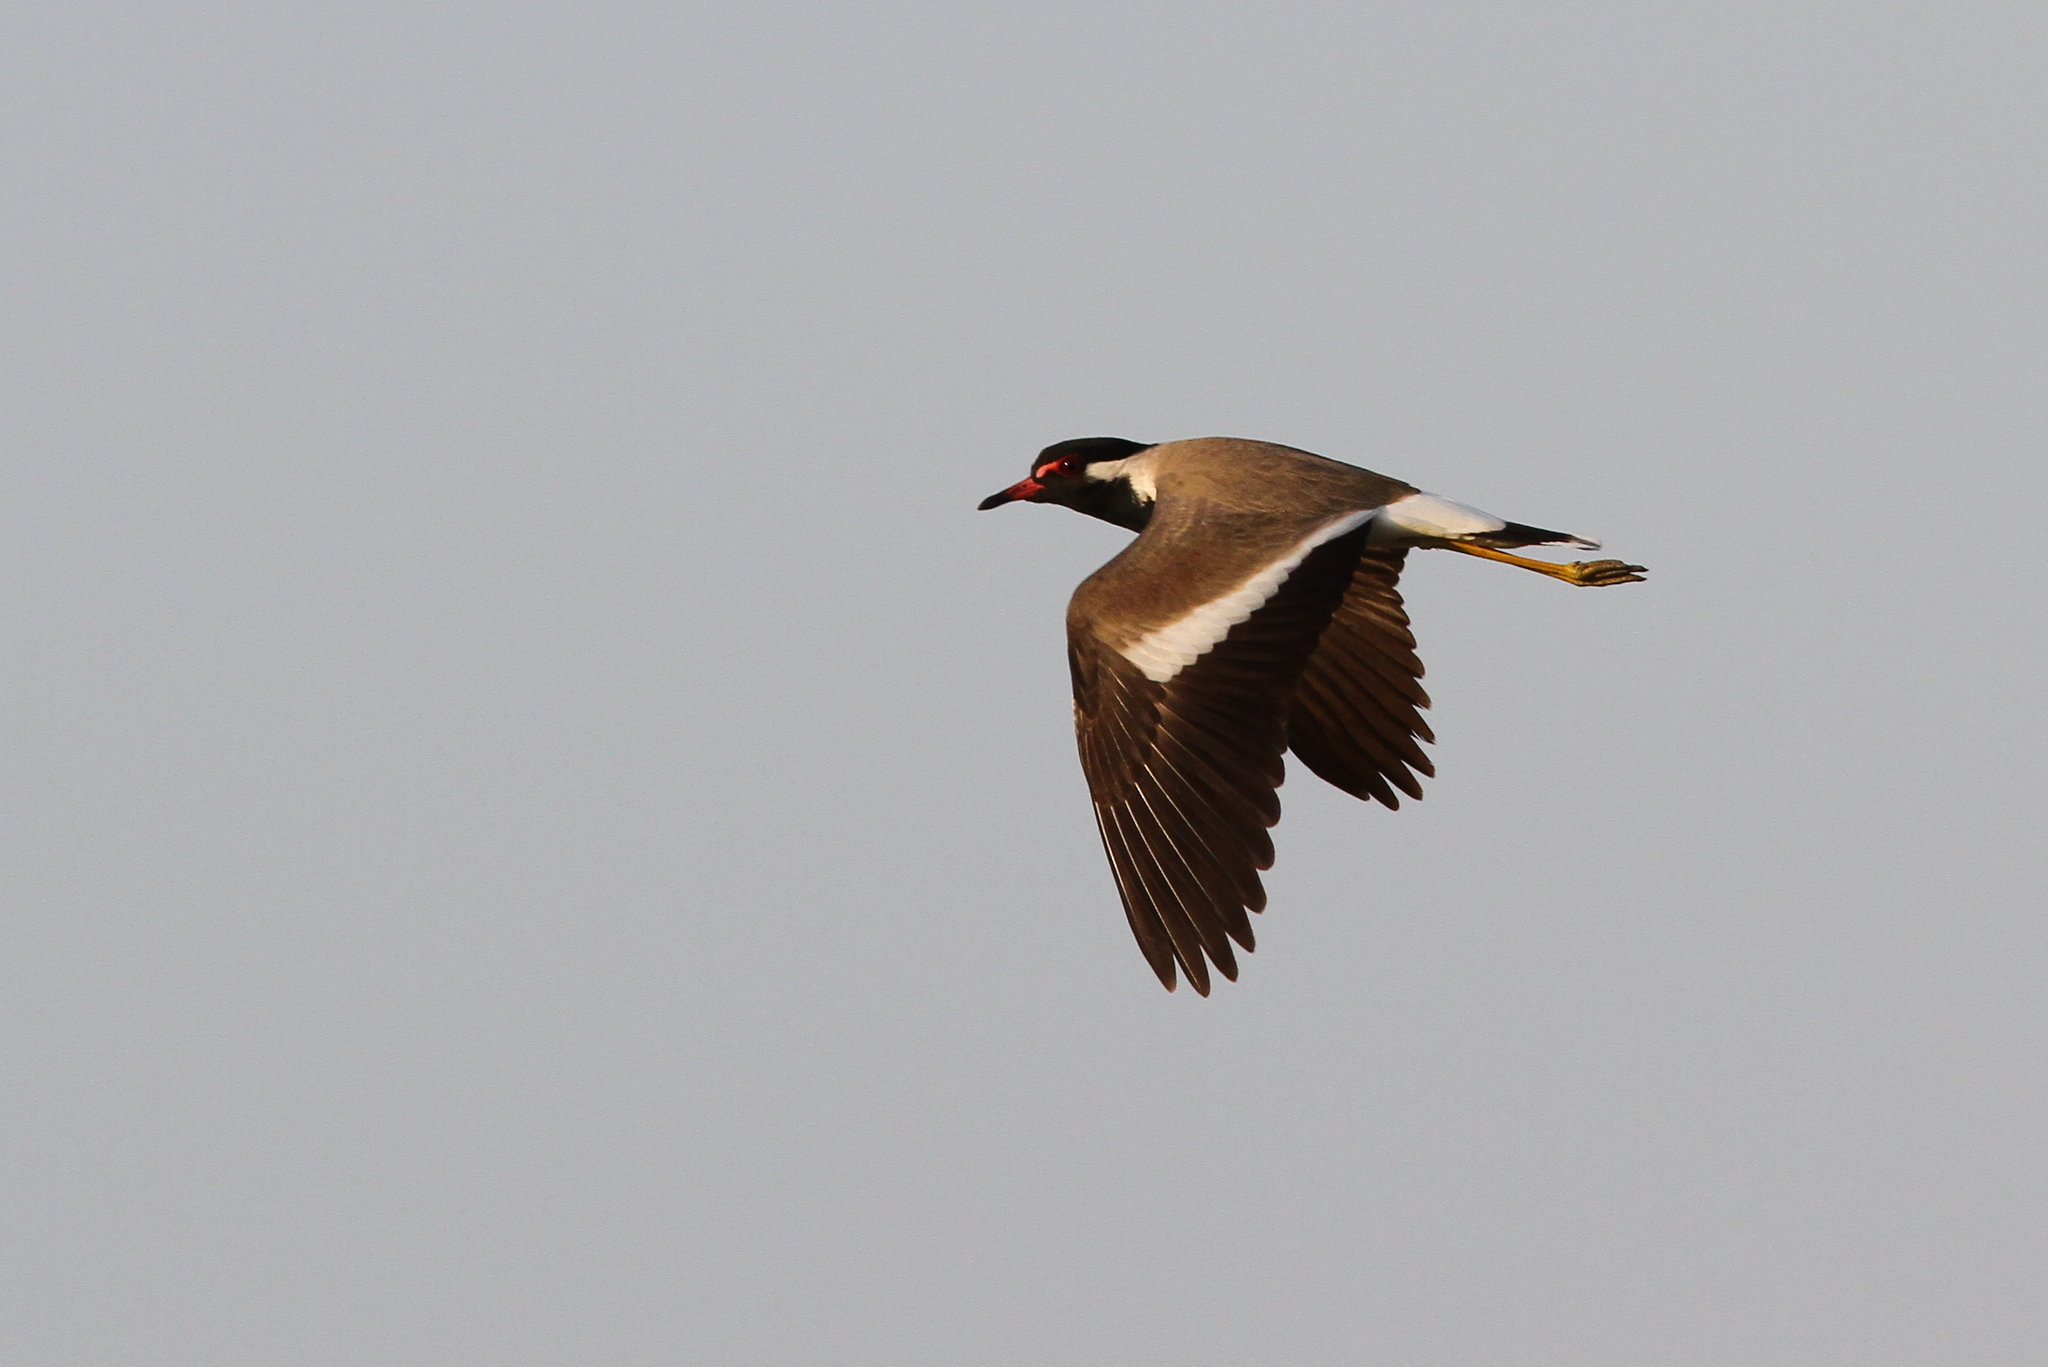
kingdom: Animalia
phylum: Chordata
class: Aves
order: Charadriiformes
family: Charadriidae
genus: Vanellus
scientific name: Vanellus indicus
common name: Red-wattled lapwing
